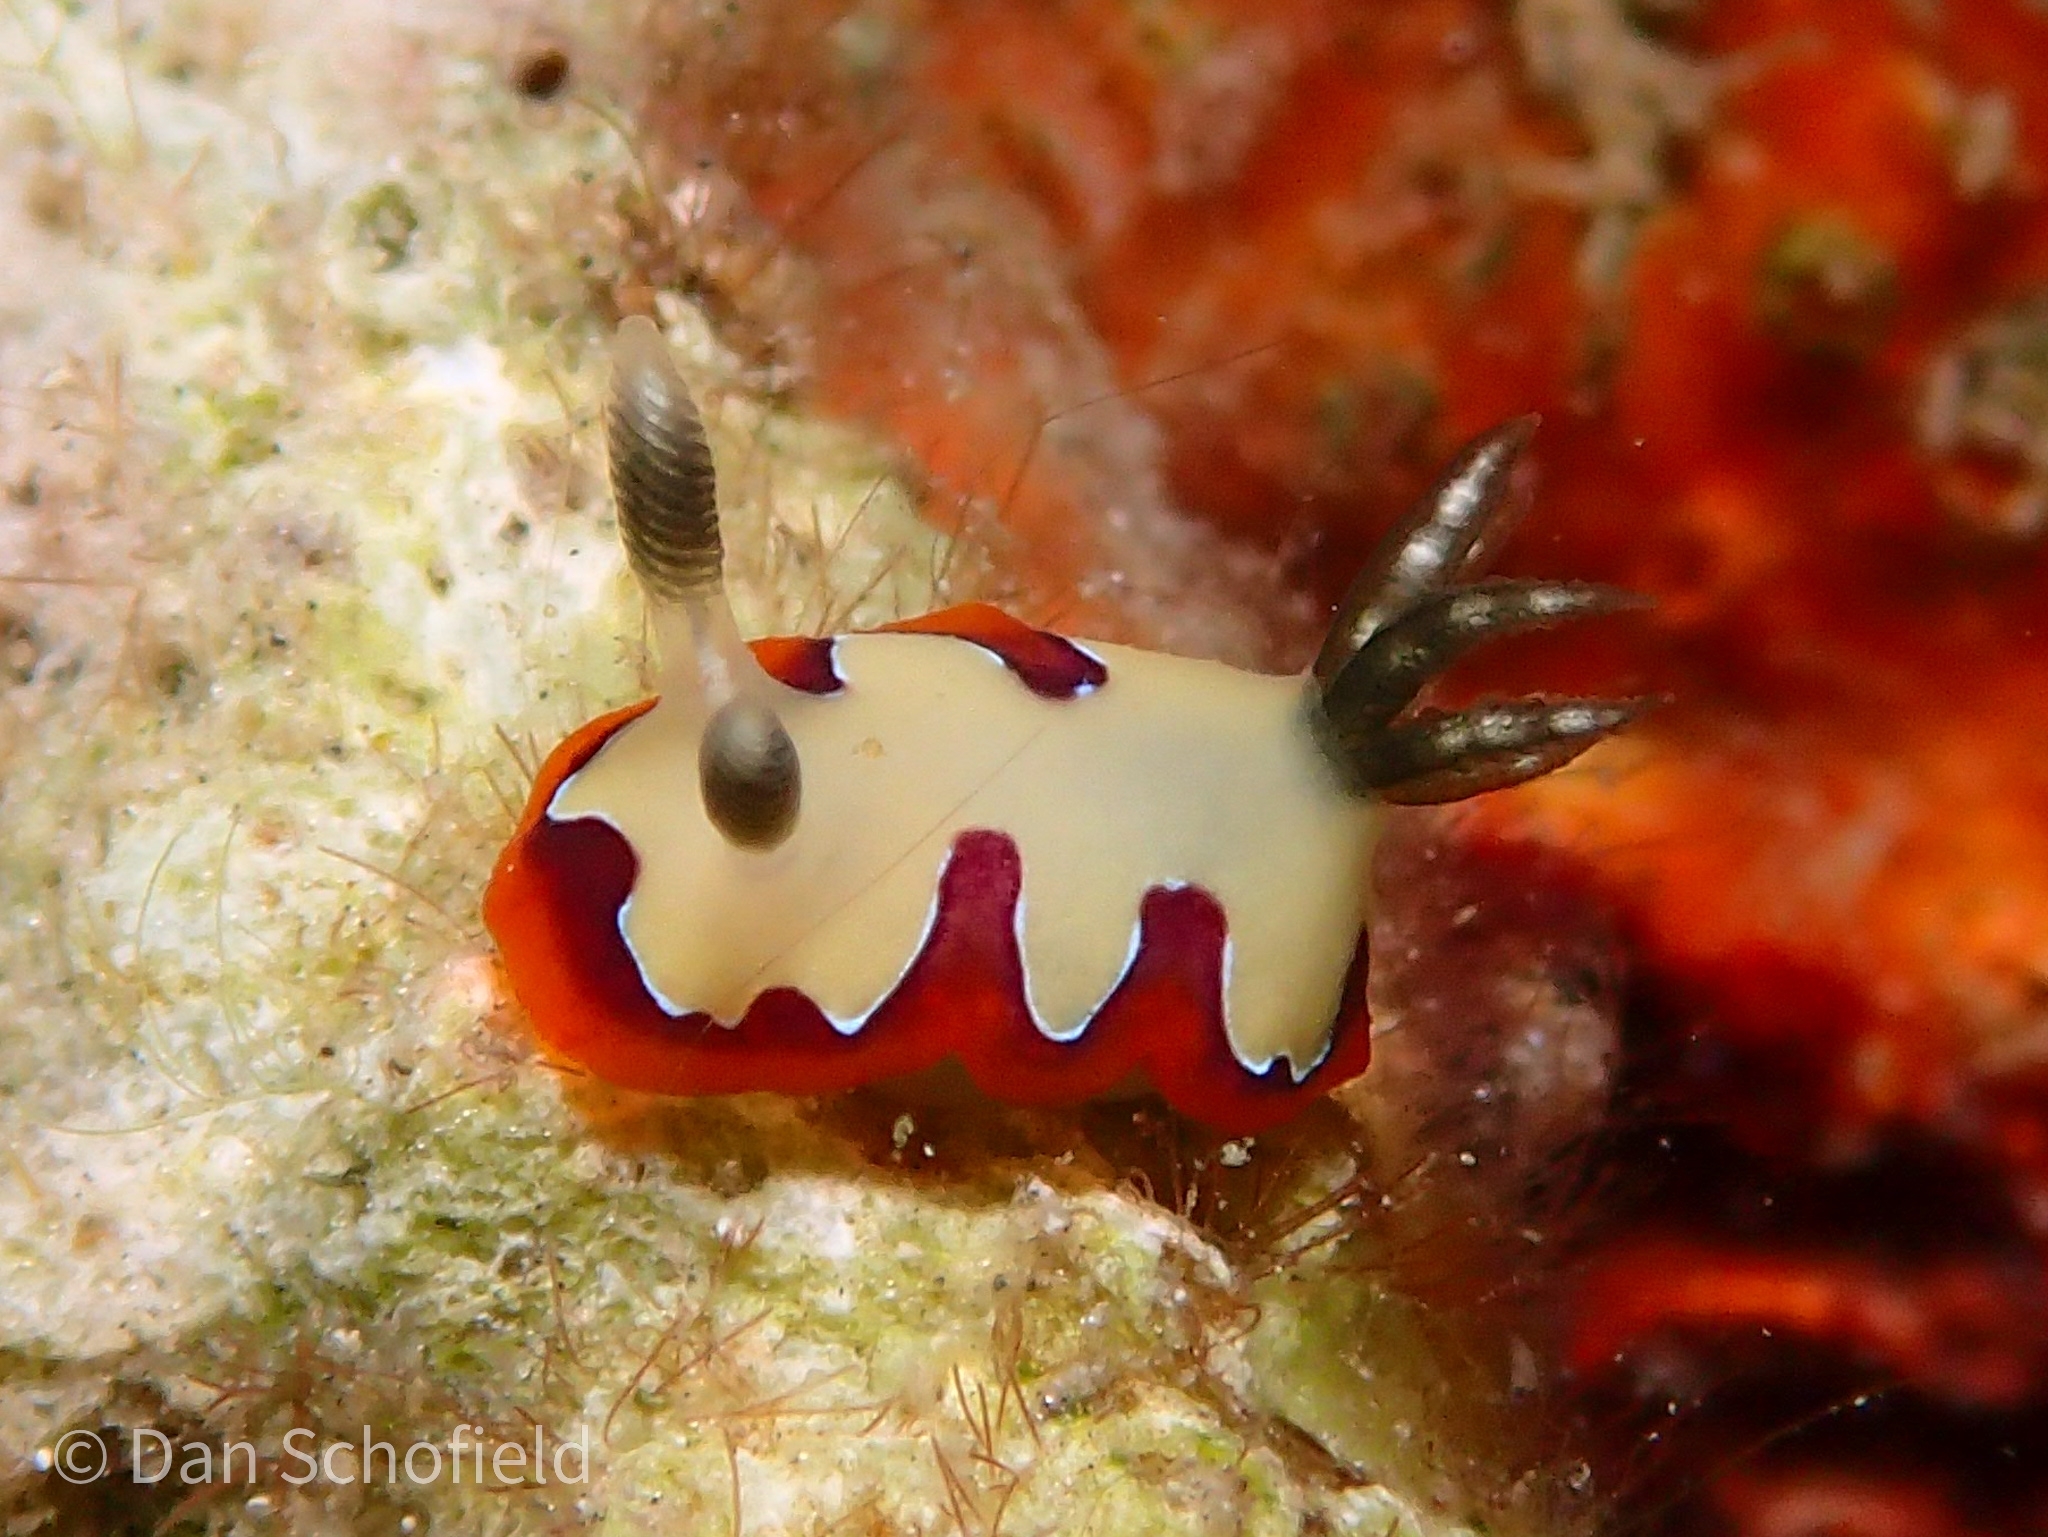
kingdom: Animalia
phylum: Mollusca
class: Gastropoda
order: Nudibranchia
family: Chromodorididae
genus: Goniobranchus
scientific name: Goniobranchus fidelis
